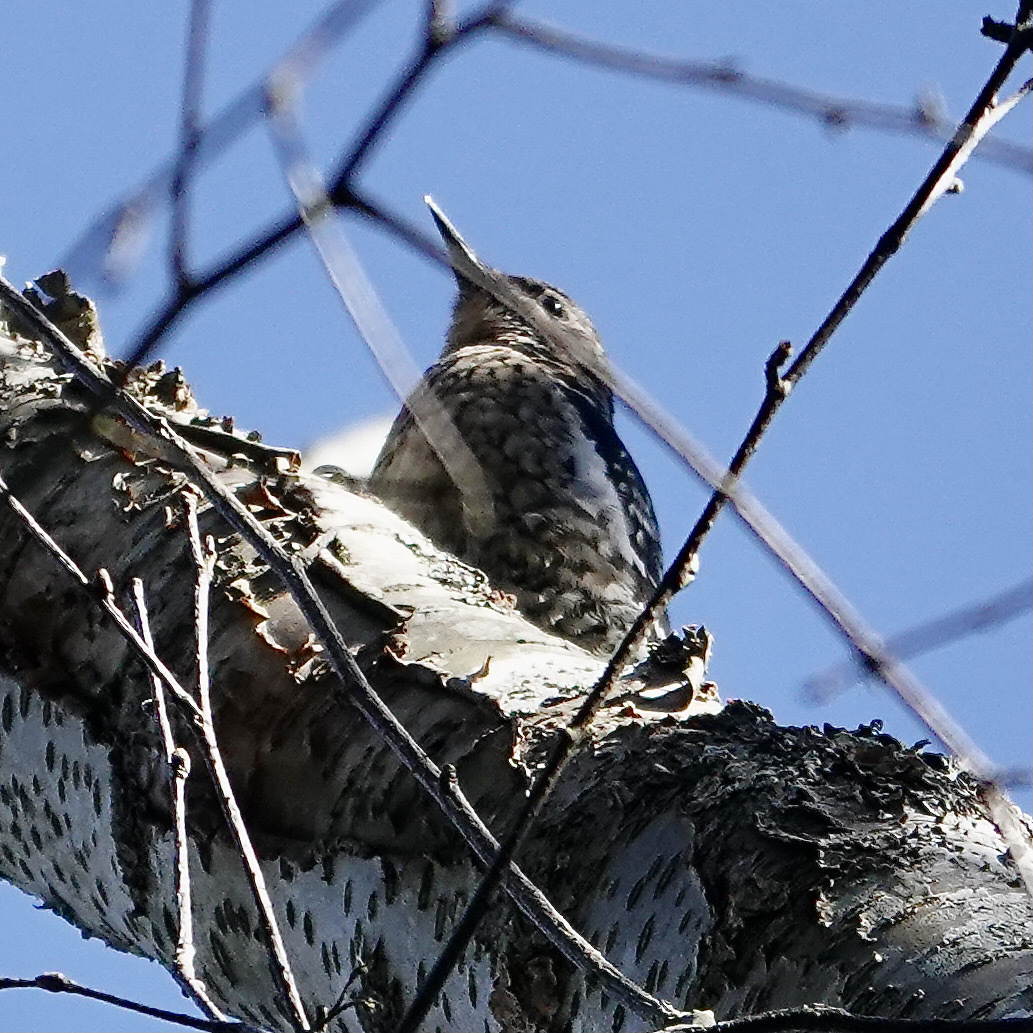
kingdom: Animalia
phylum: Chordata
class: Aves
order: Piciformes
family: Picidae
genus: Sphyrapicus
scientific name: Sphyrapicus varius
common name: Yellow-bellied sapsucker
